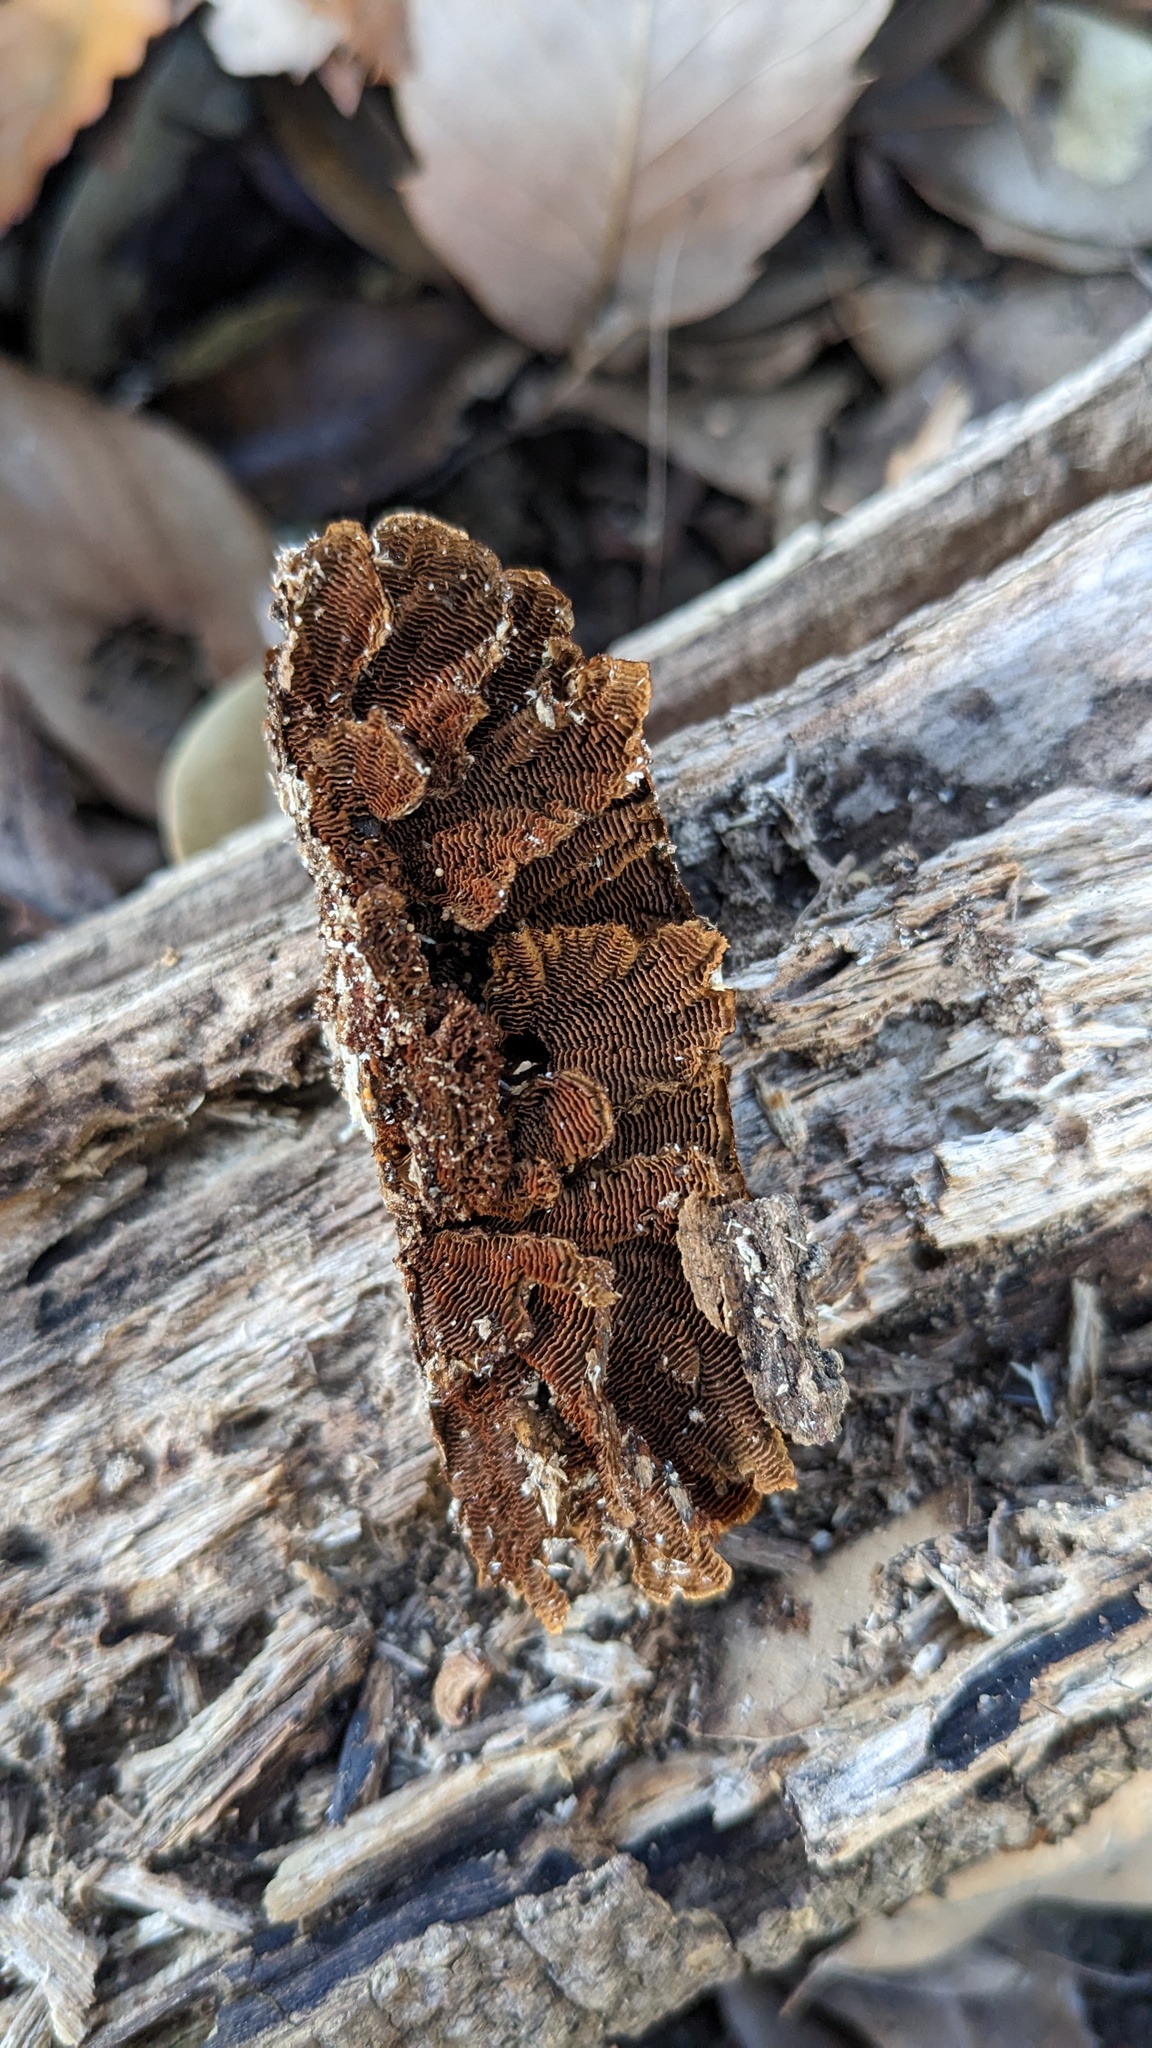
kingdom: Fungi
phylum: Basidiomycota
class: Agaricomycetes
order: Hymenochaetales
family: Hymenochaetaceae
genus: Hymenochaete
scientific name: Hymenochaete cyclolamellata
